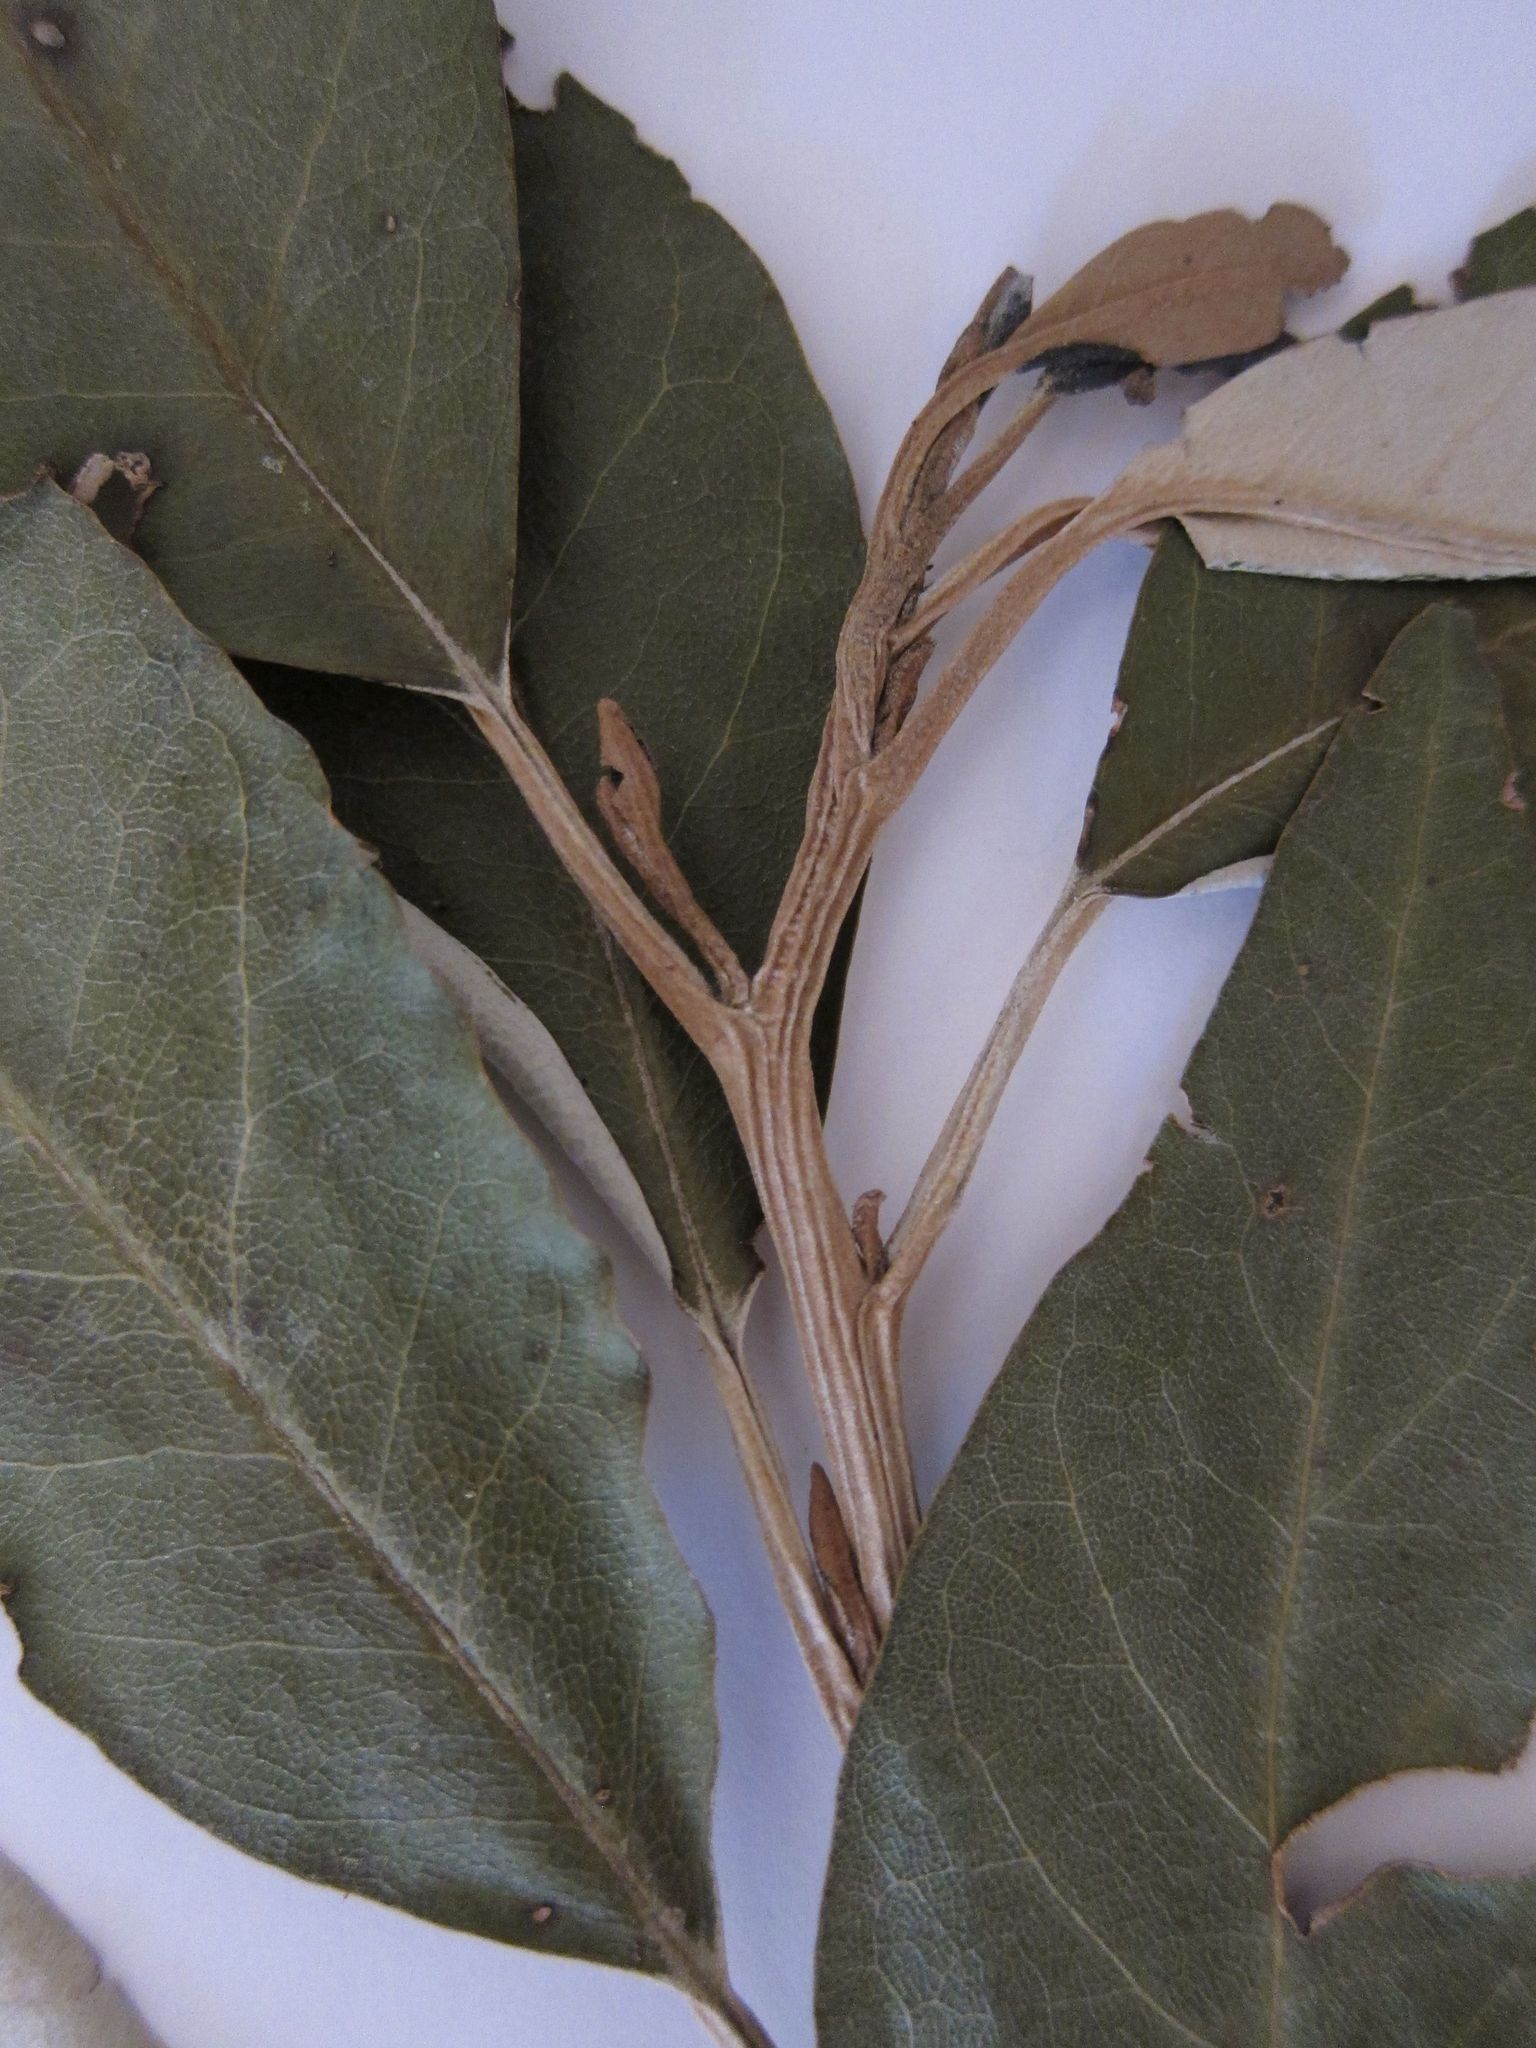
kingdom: Plantae
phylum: Tracheophyta
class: Magnoliopsida
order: Asterales
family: Asteraceae
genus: Olearia
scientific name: Olearia avicenniifolia
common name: Mangrove-leaf daisybush
